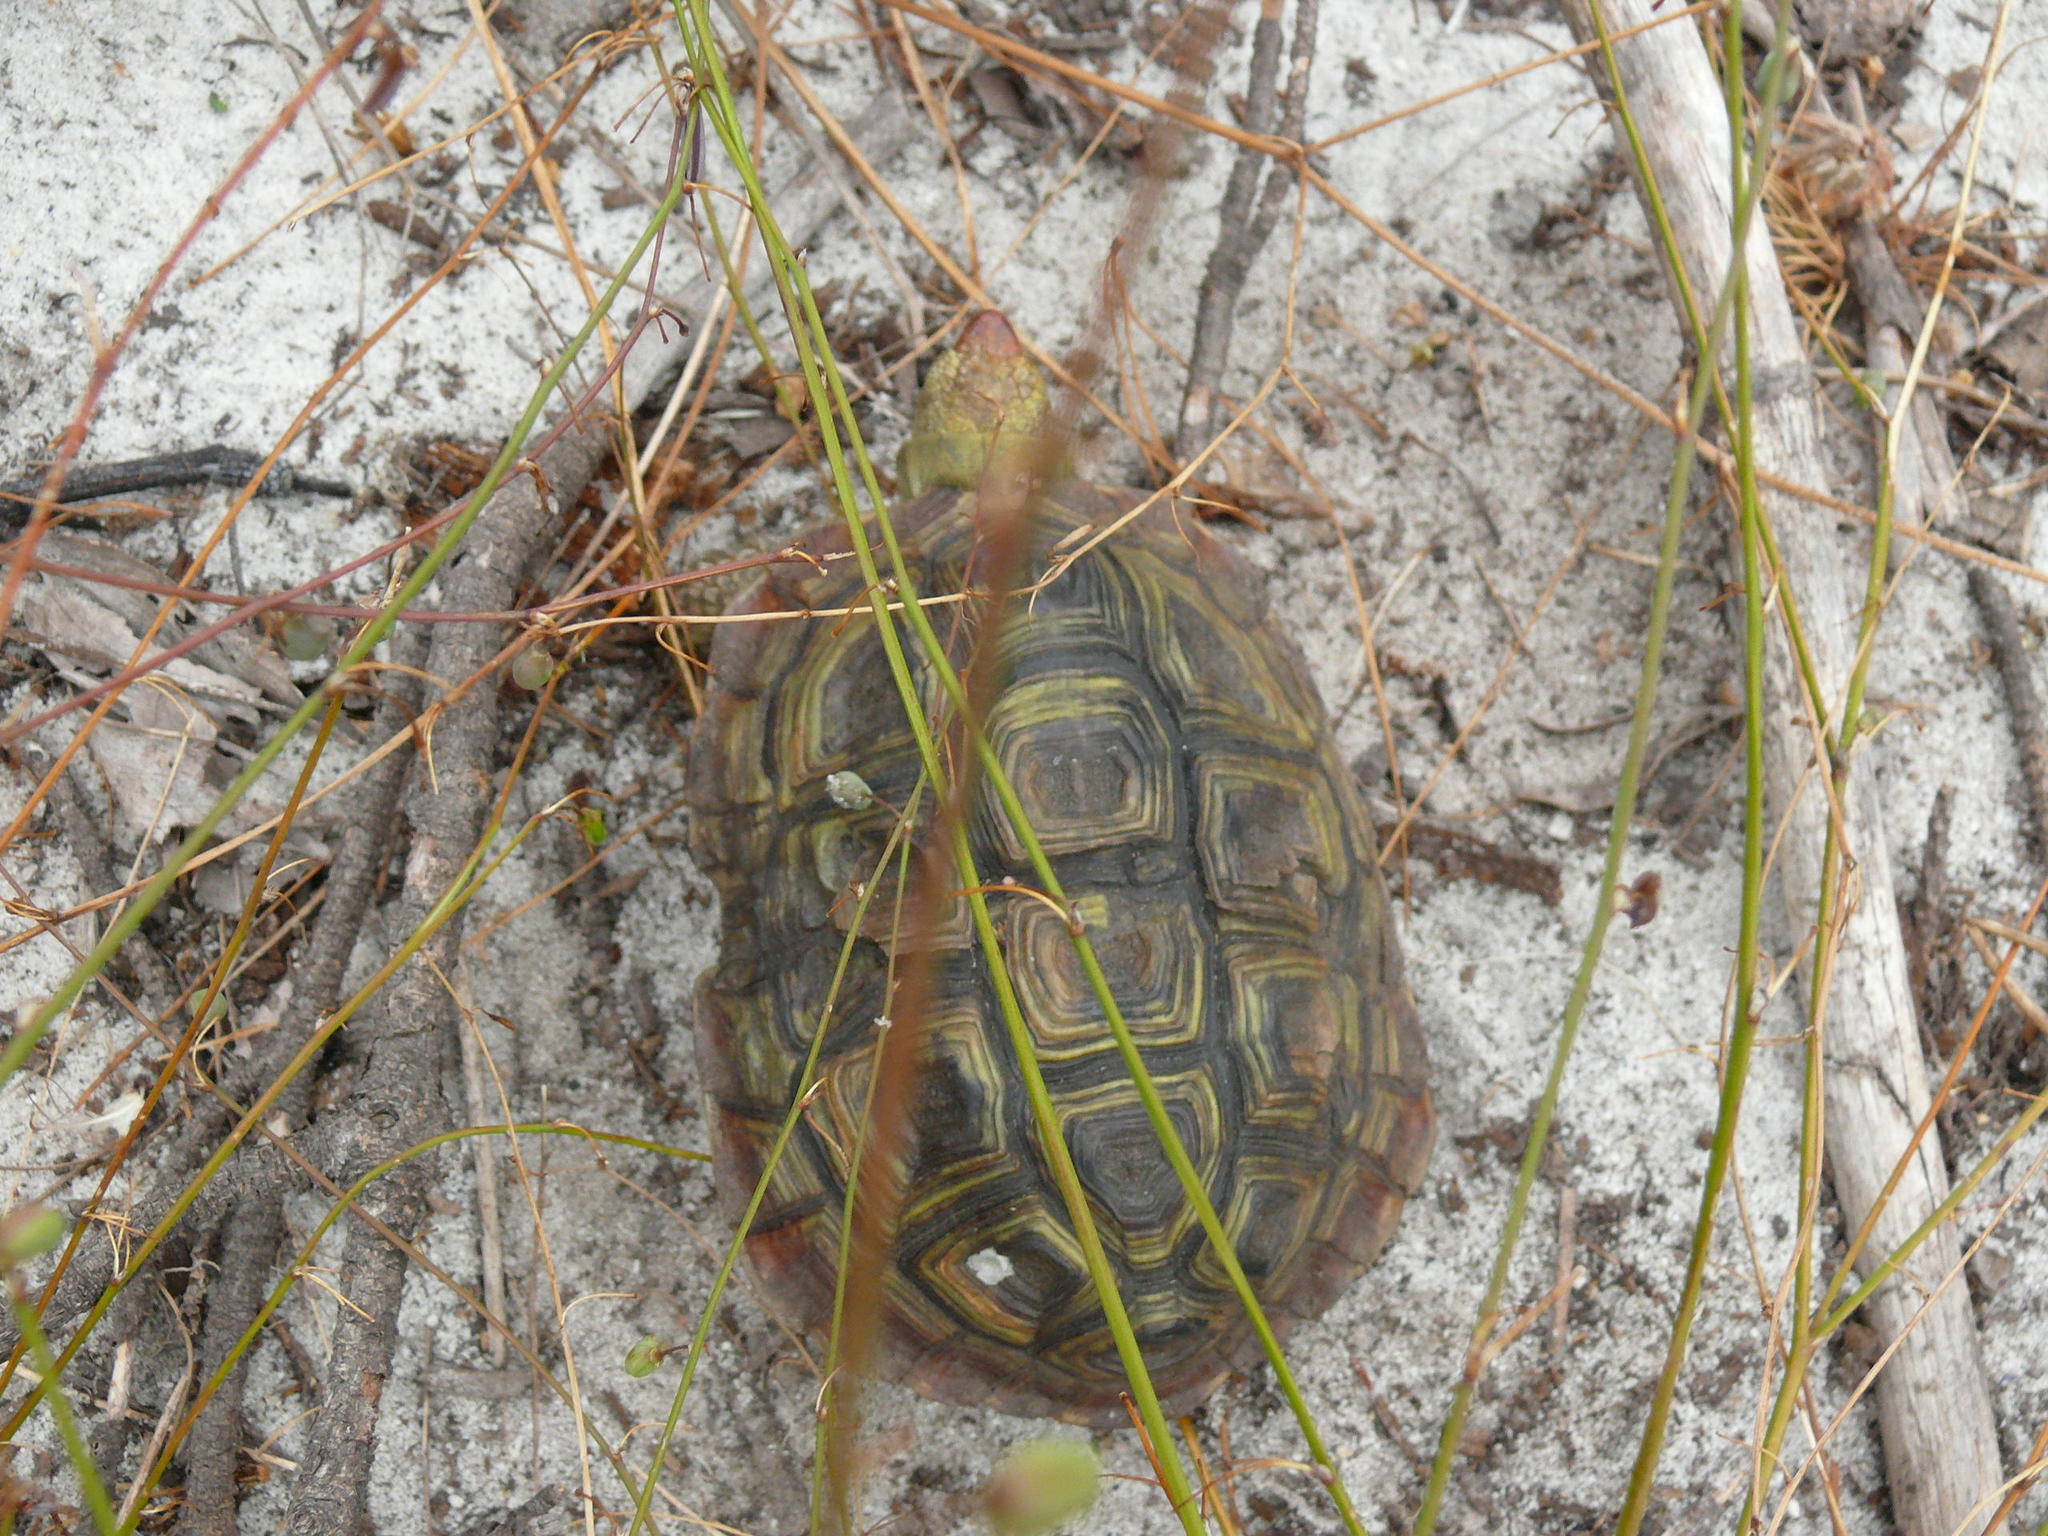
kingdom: Animalia
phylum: Chordata
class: Testudines
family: Testudinidae
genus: Homopus
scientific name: Homopus areolatus
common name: Parrot-beaked tortoise
